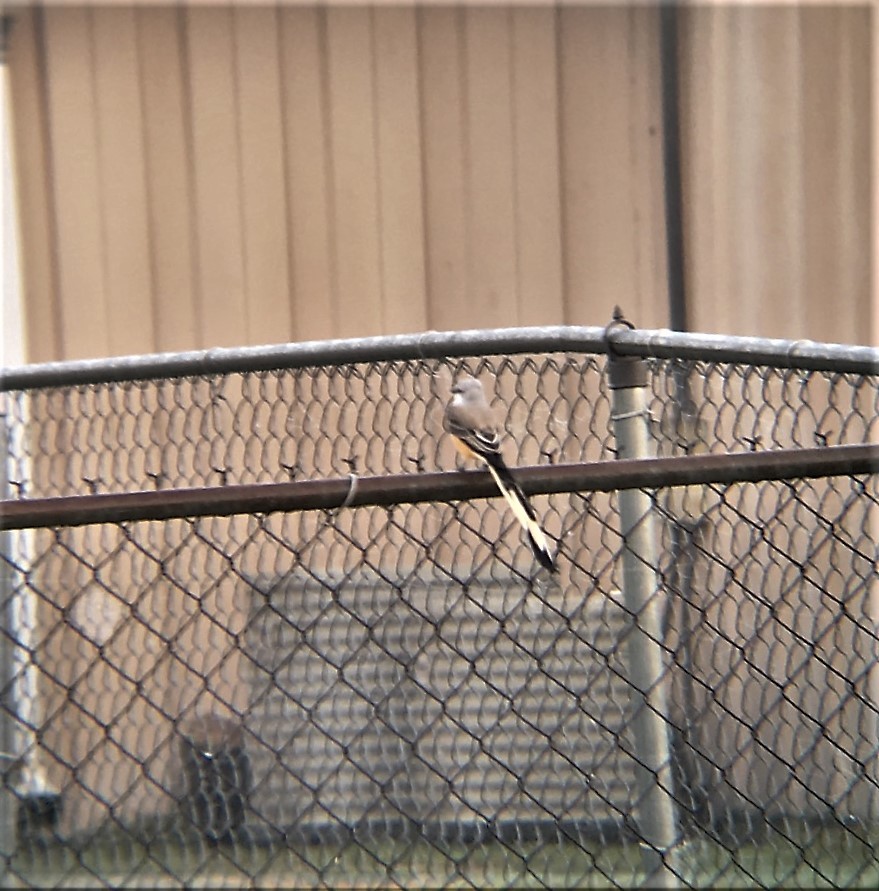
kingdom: Animalia
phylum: Chordata
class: Aves
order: Passeriformes
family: Tyrannidae
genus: Tyrannus
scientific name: Tyrannus forficatus
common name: Scissor-tailed flycatcher
